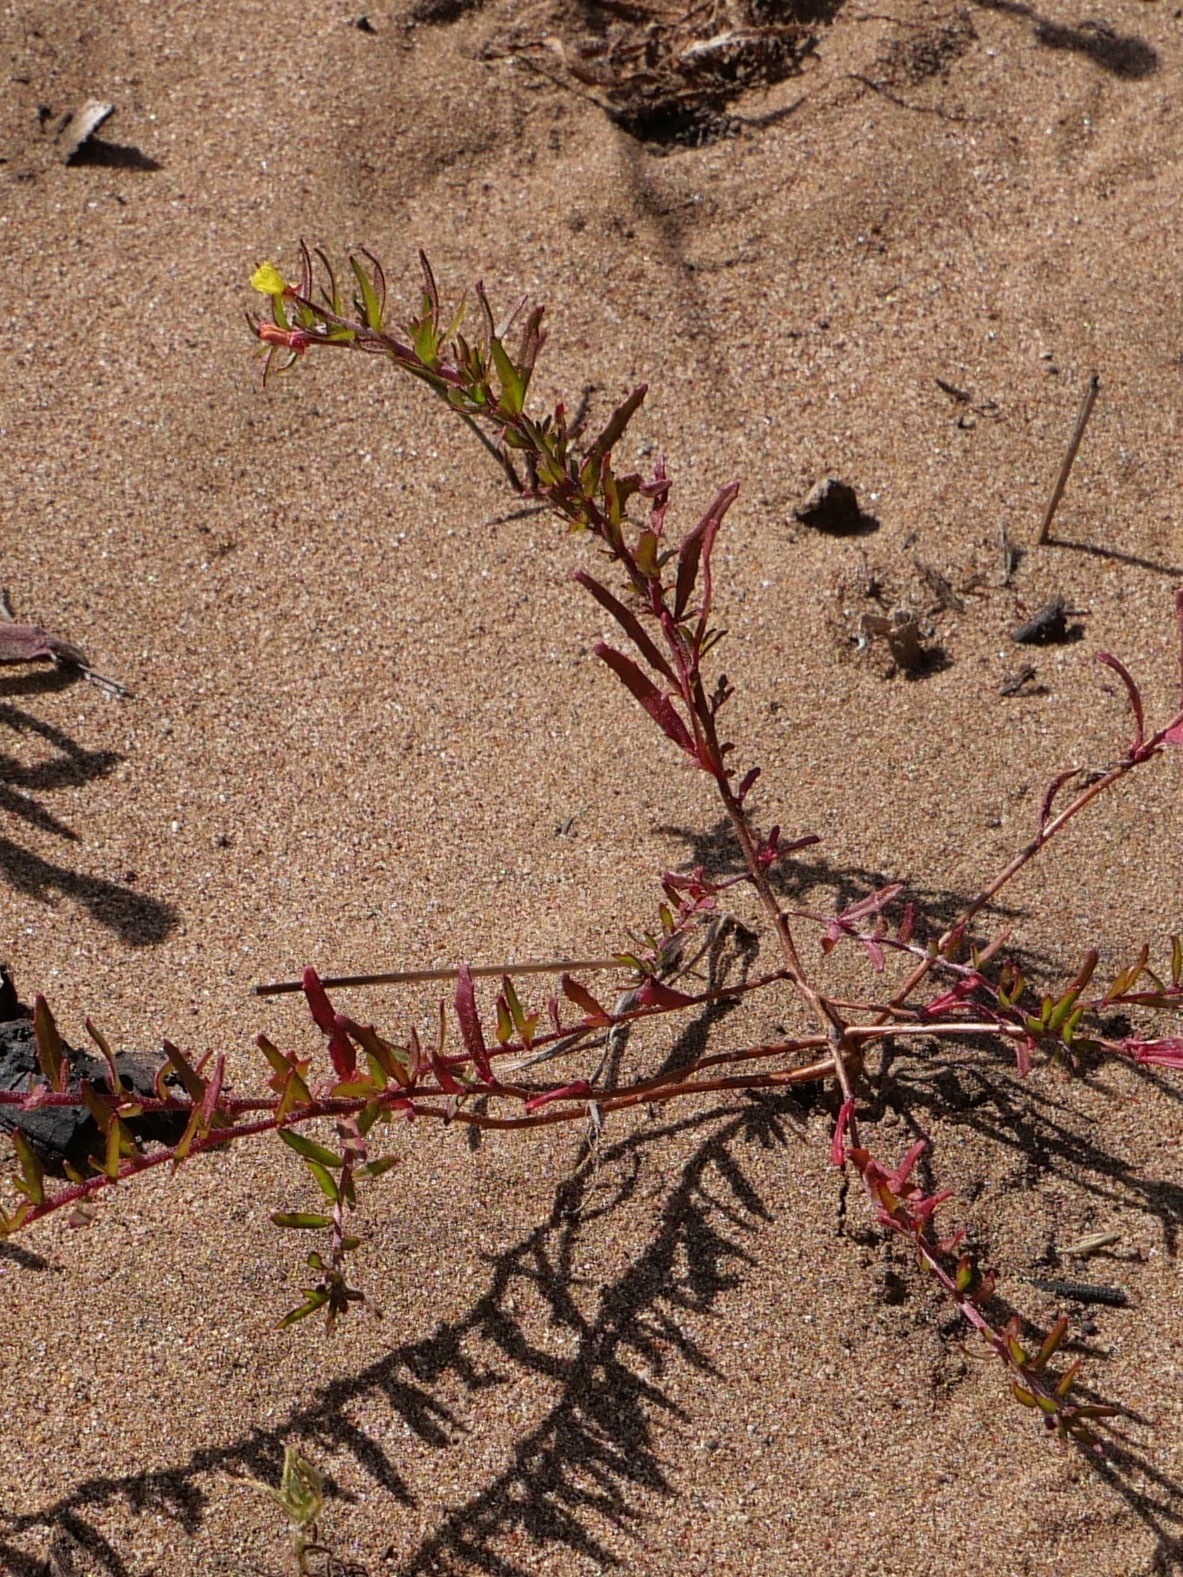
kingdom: Plantae
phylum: Tracheophyta
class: Magnoliopsida
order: Myrtales
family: Onagraceae
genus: Camissonia
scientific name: Camissonia strigulosa
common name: Contorted-primrose
